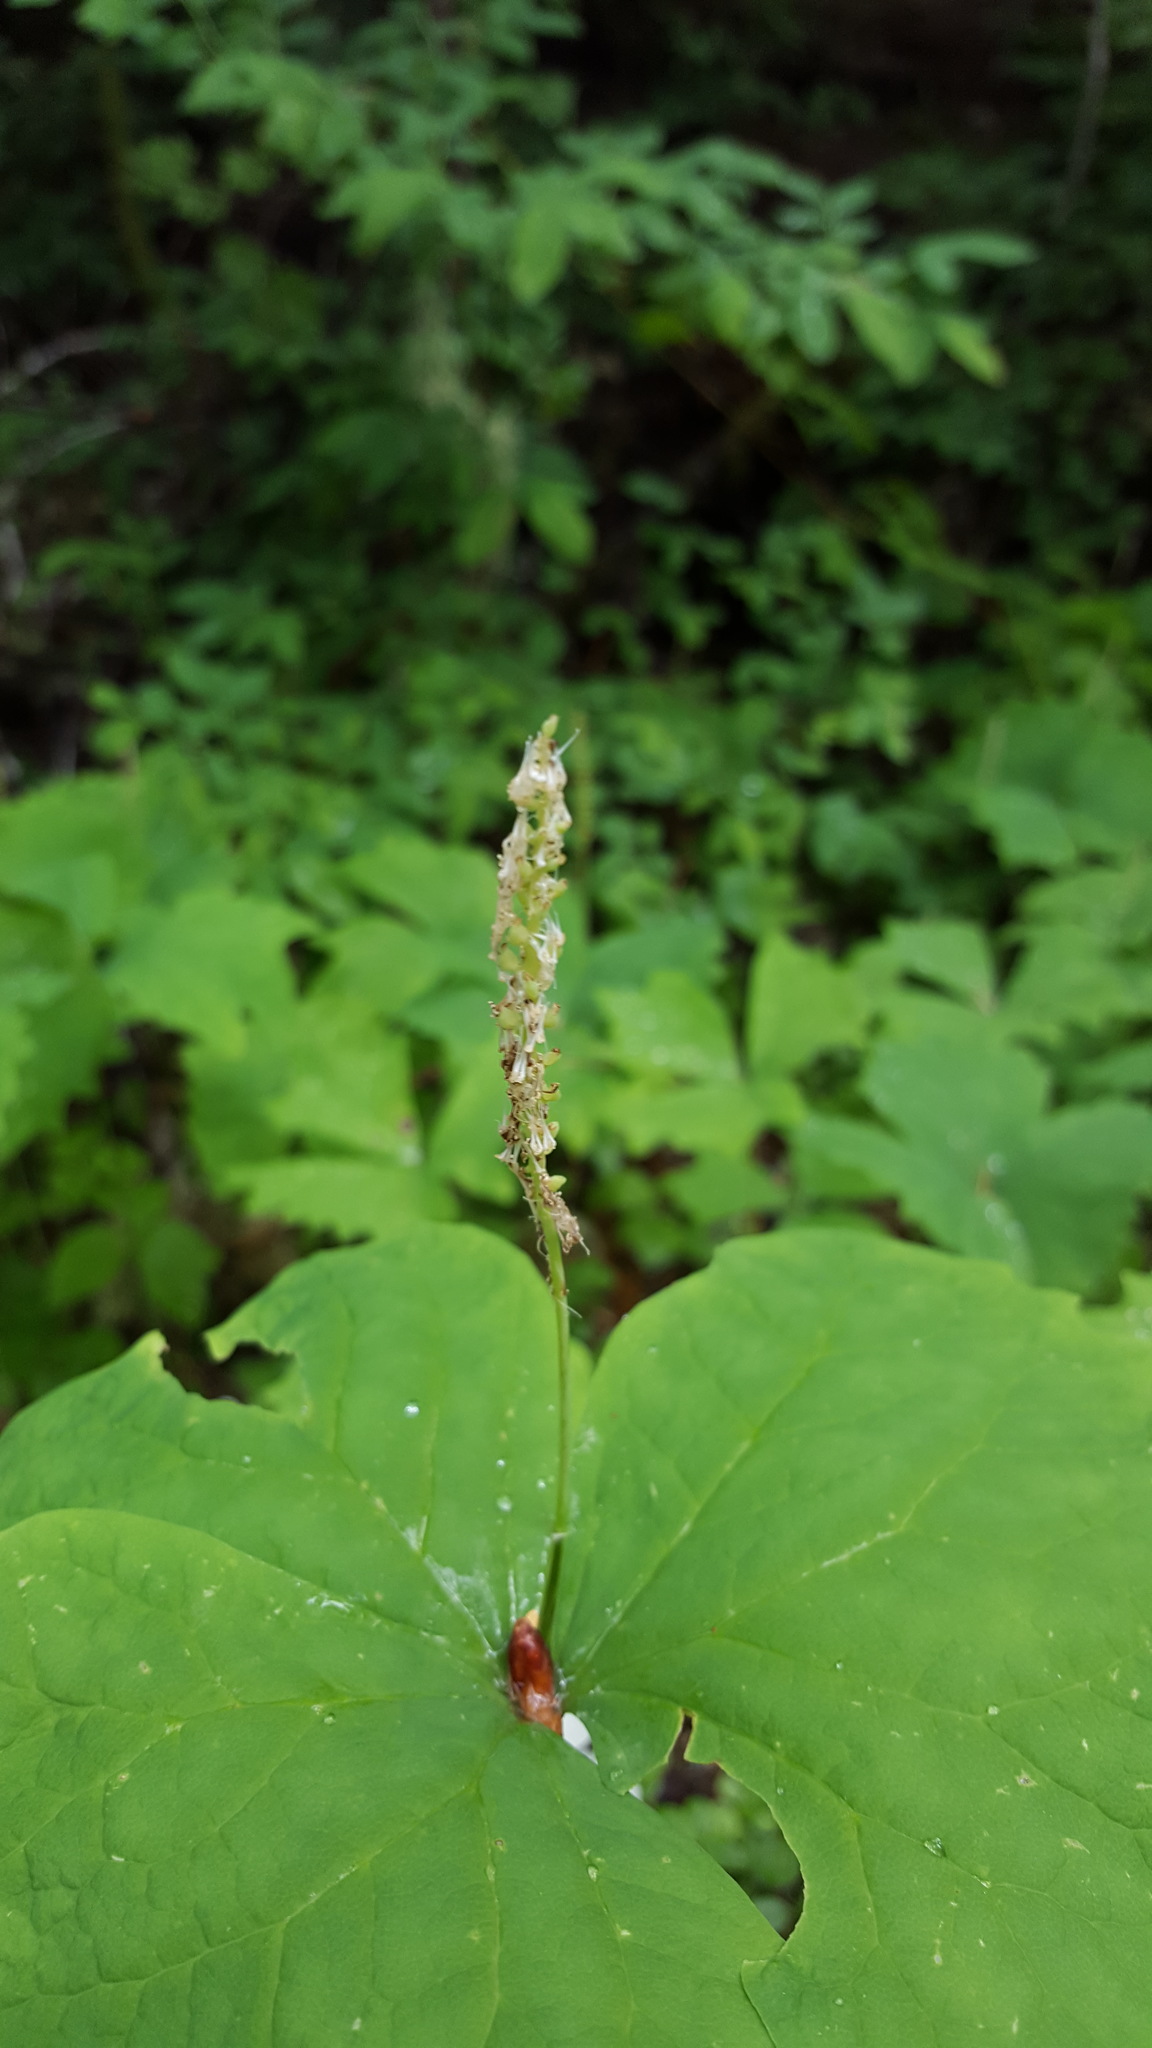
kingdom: Plantae
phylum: Tracheophyta
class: Magnoliopsida
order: Ranunculales
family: Berberidaceae
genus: Achlys
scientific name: Achlys triphylla
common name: Vanilla-leaf
